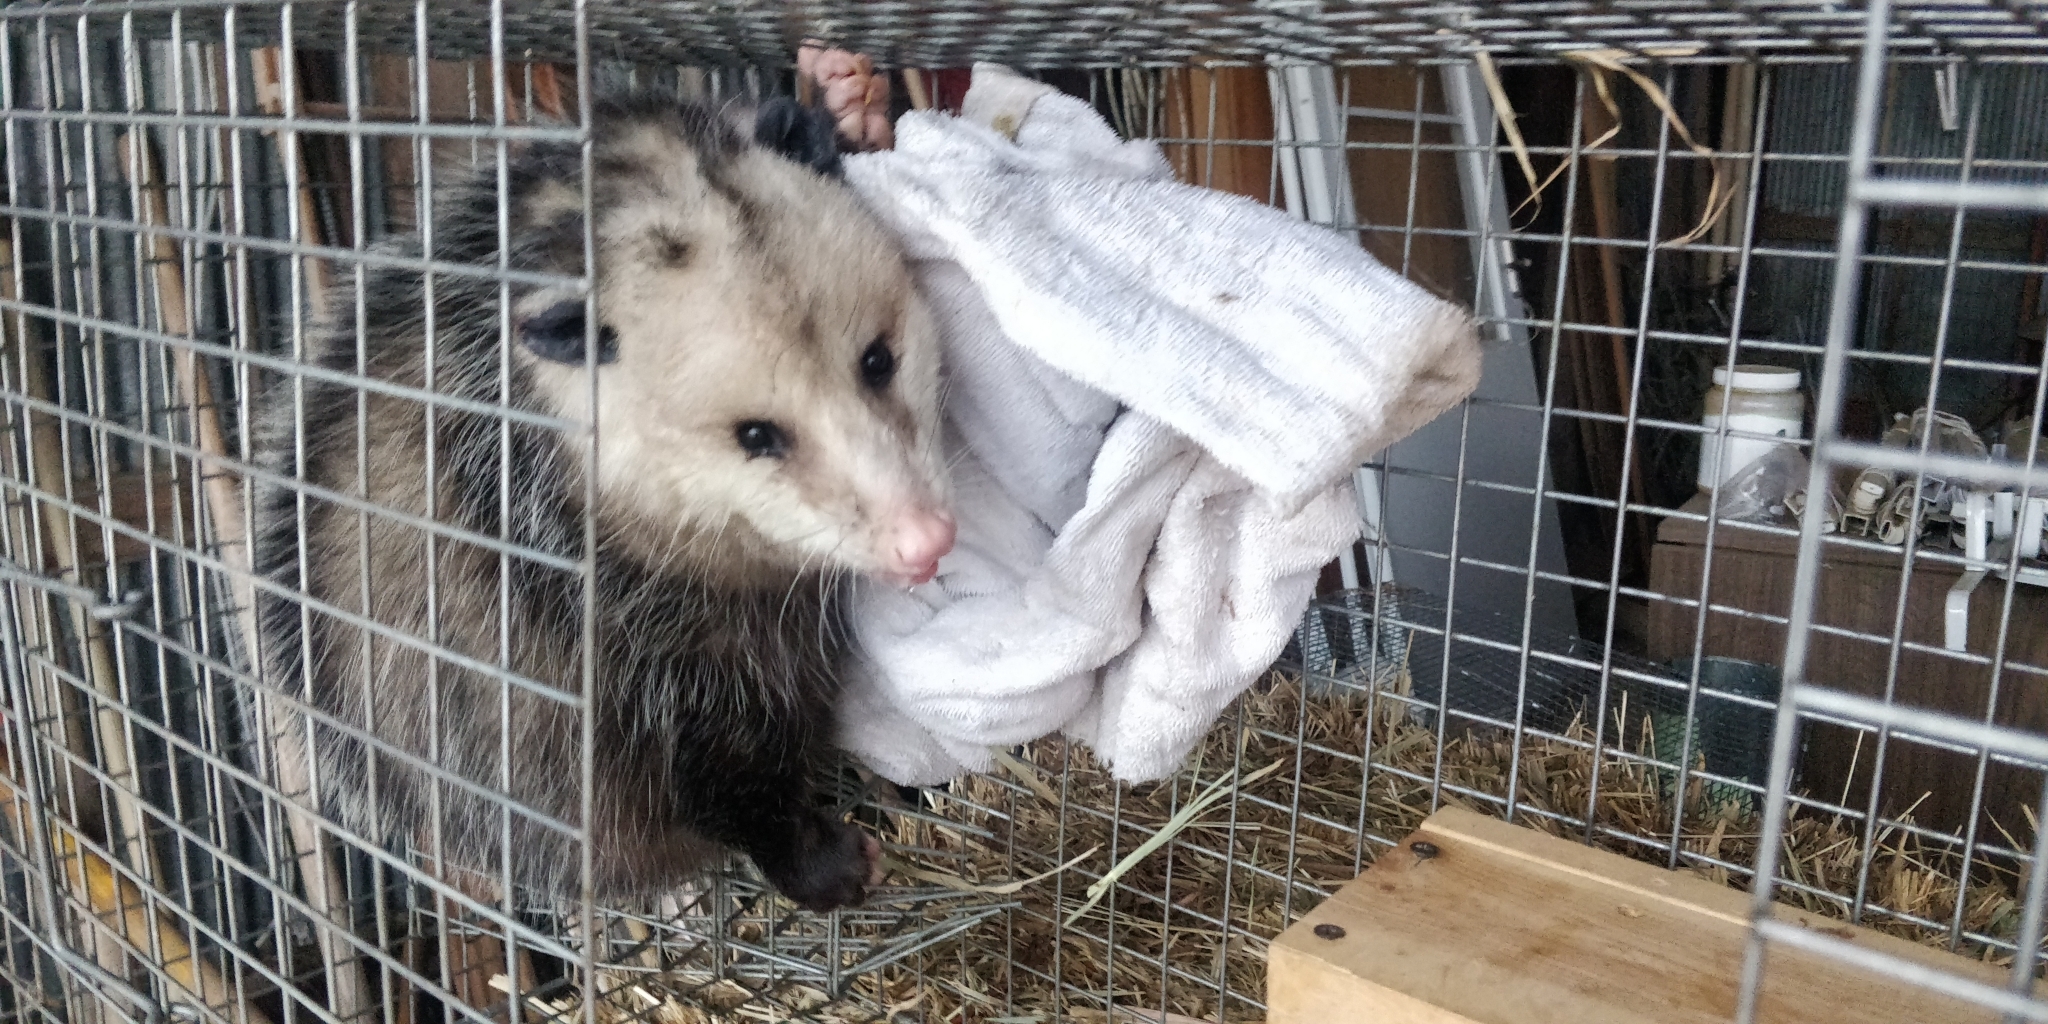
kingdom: Animalia
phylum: Chordata
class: Mammalia
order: Didelphimorphia
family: Didelphidae
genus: Didelphis
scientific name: Didelphis virginiana
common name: Virginia opossum
